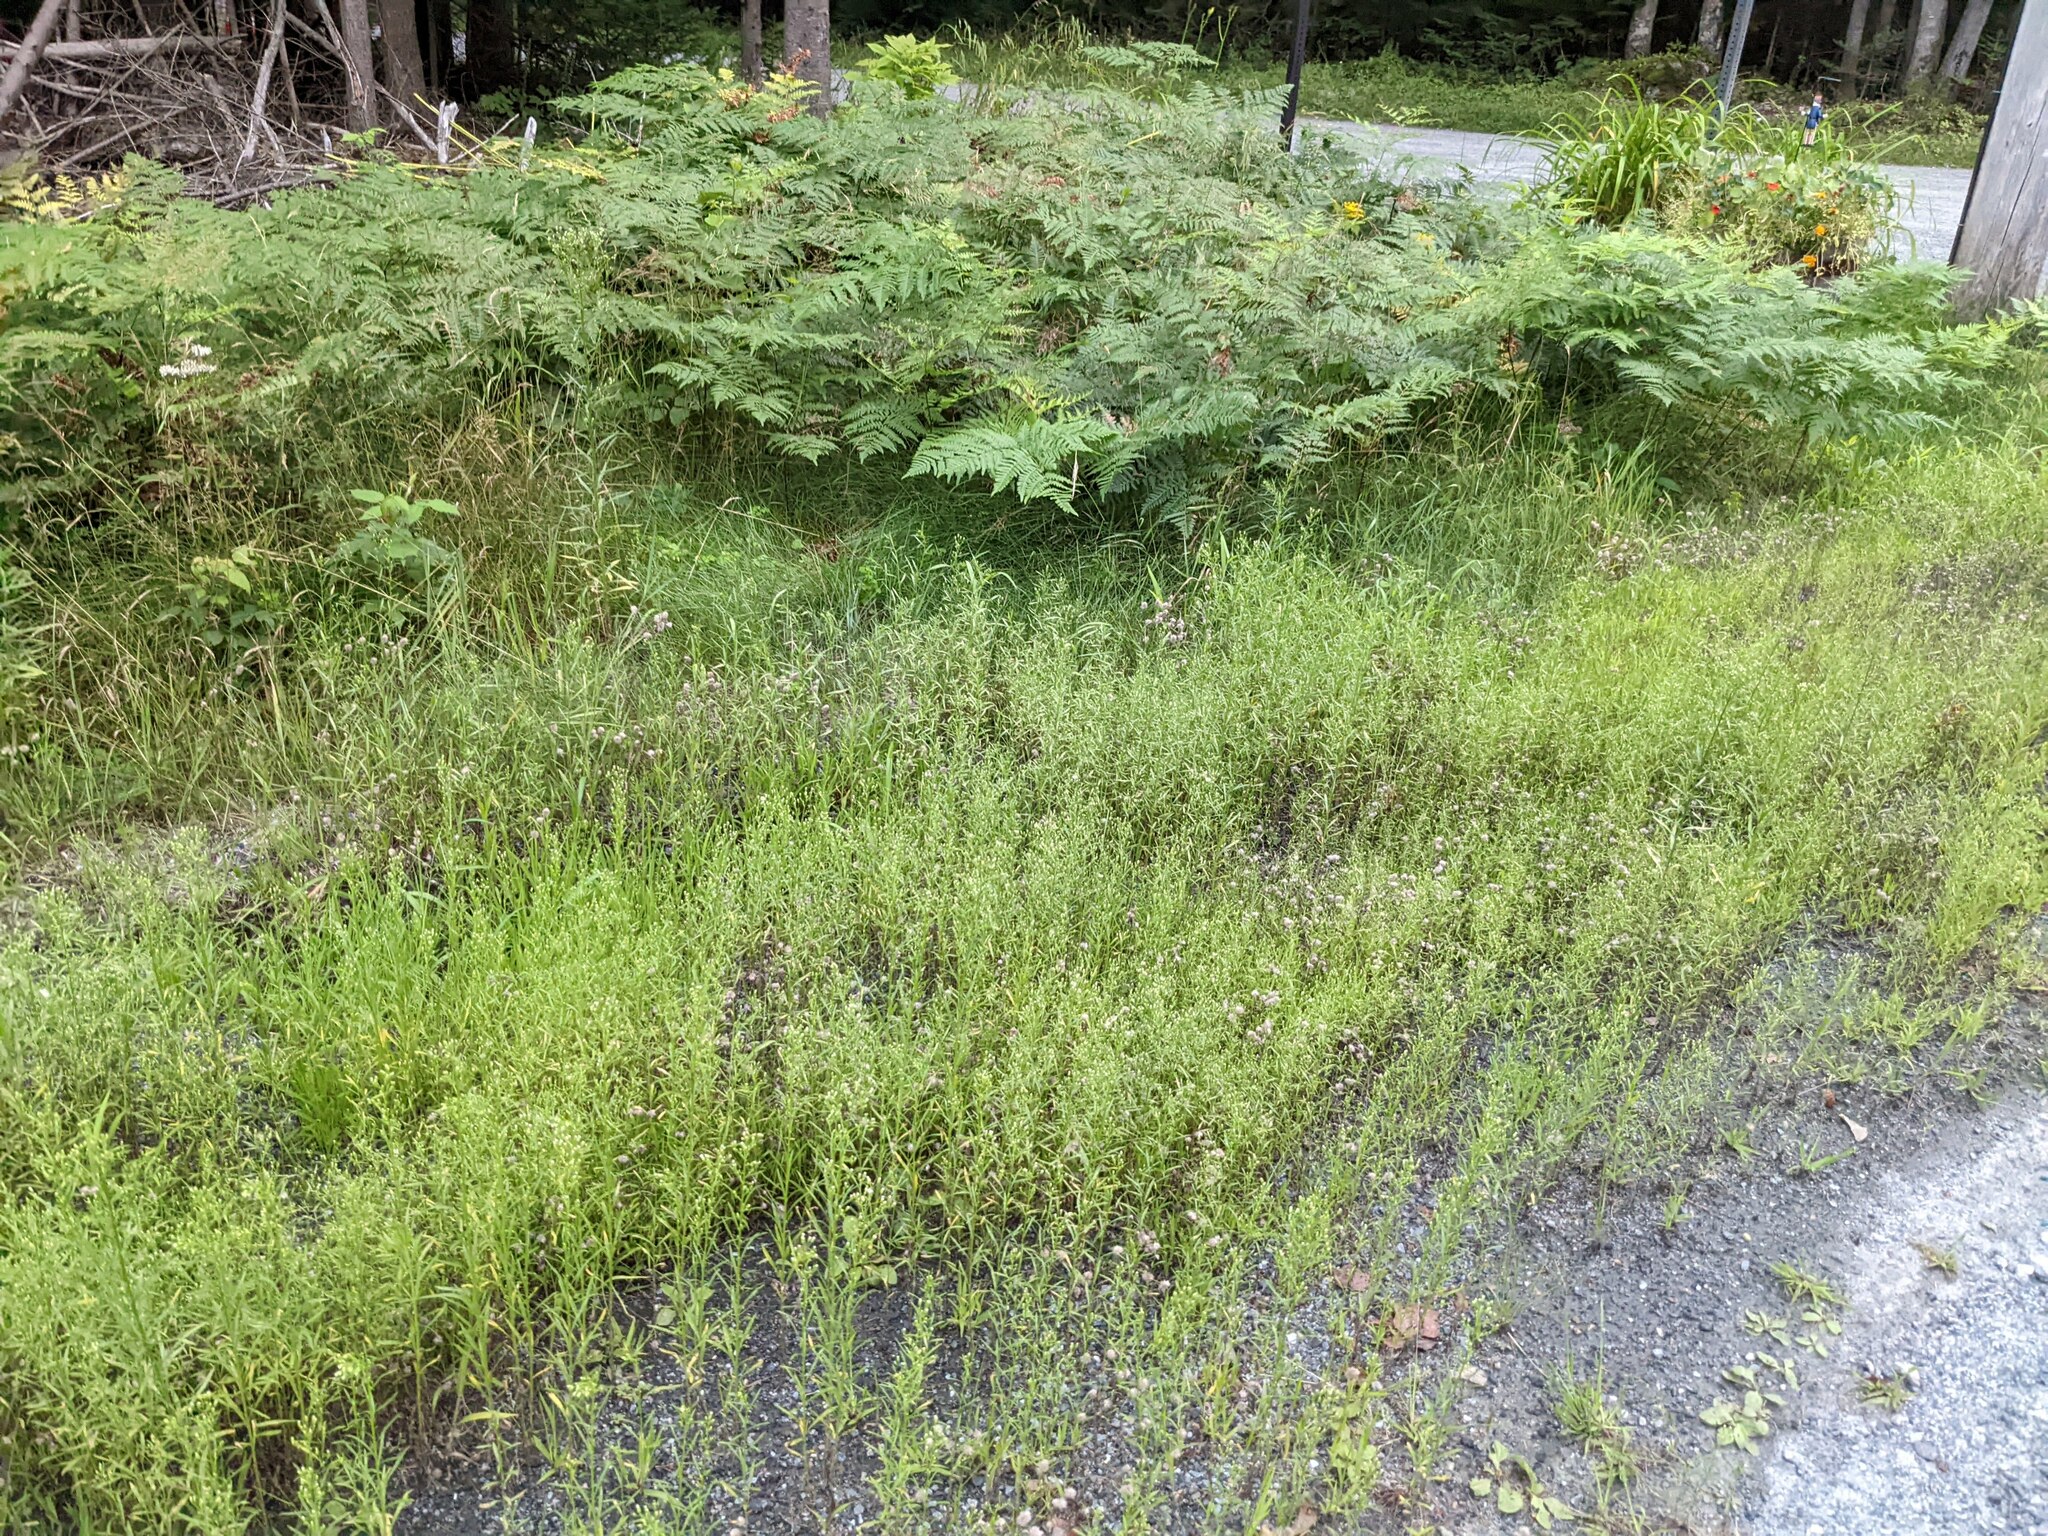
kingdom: Plantae
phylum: Tracheophyta
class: Magnoliopsida
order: Asterales
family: Asteraceae
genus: Erigeron
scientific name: Erigeron canadensis
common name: Canadian fleabane
